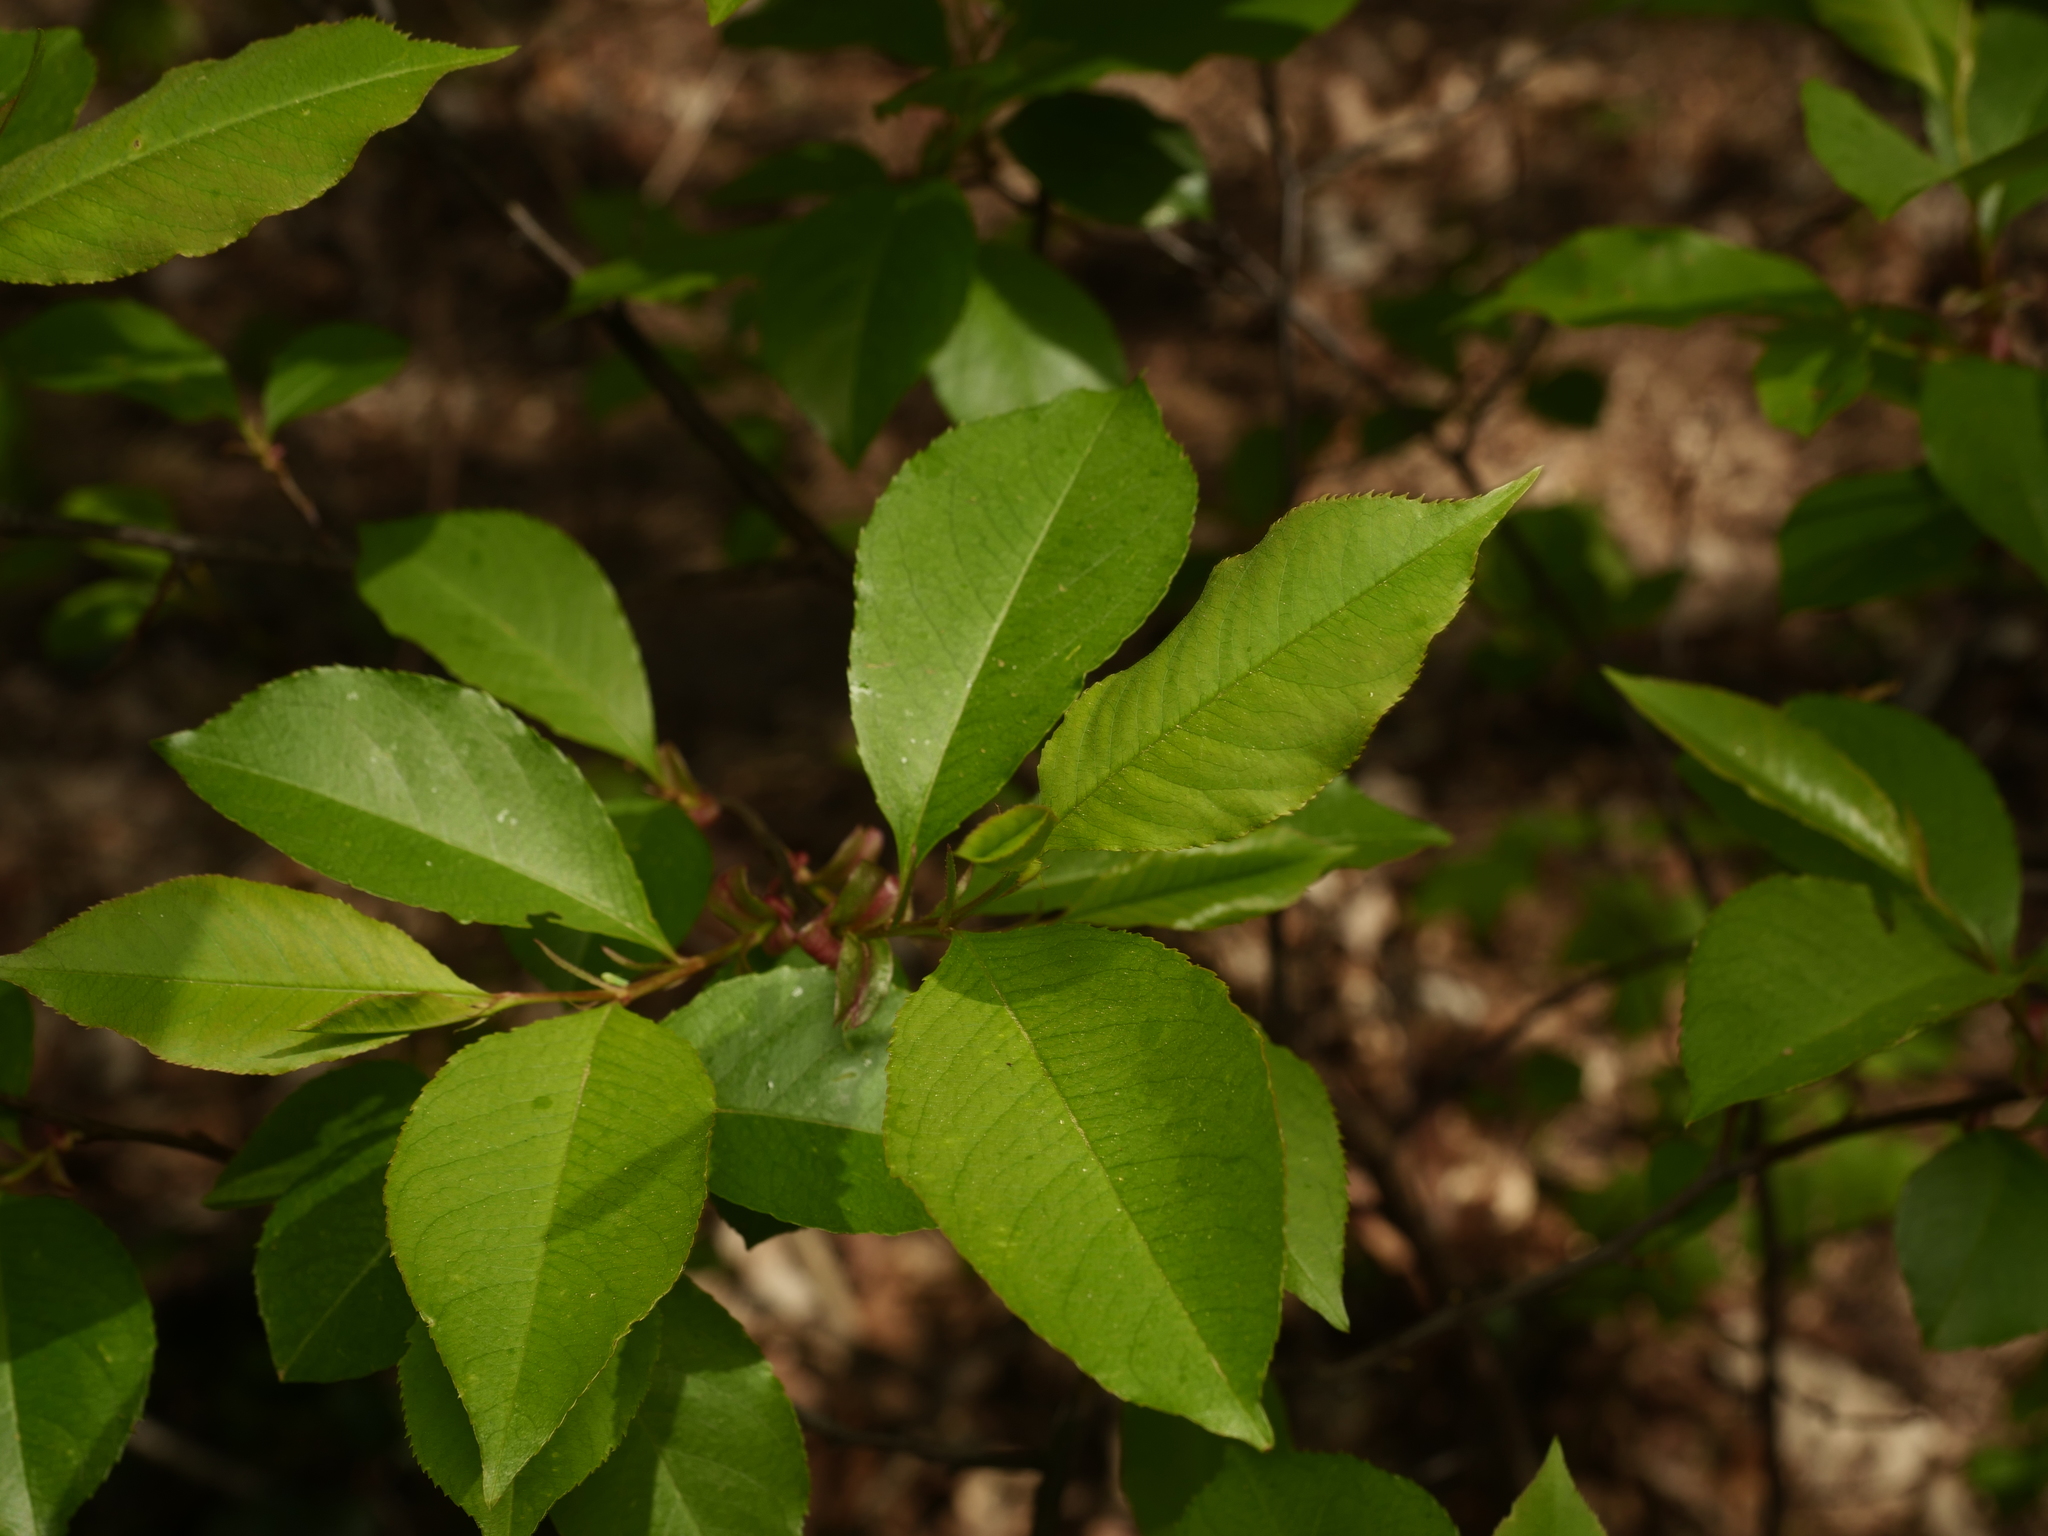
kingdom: Plantae
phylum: Tracheophyta
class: Magnoliopsida
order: Rosales
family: Rosaceae
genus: Prunus
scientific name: Prunus serotina
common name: Black cherry
